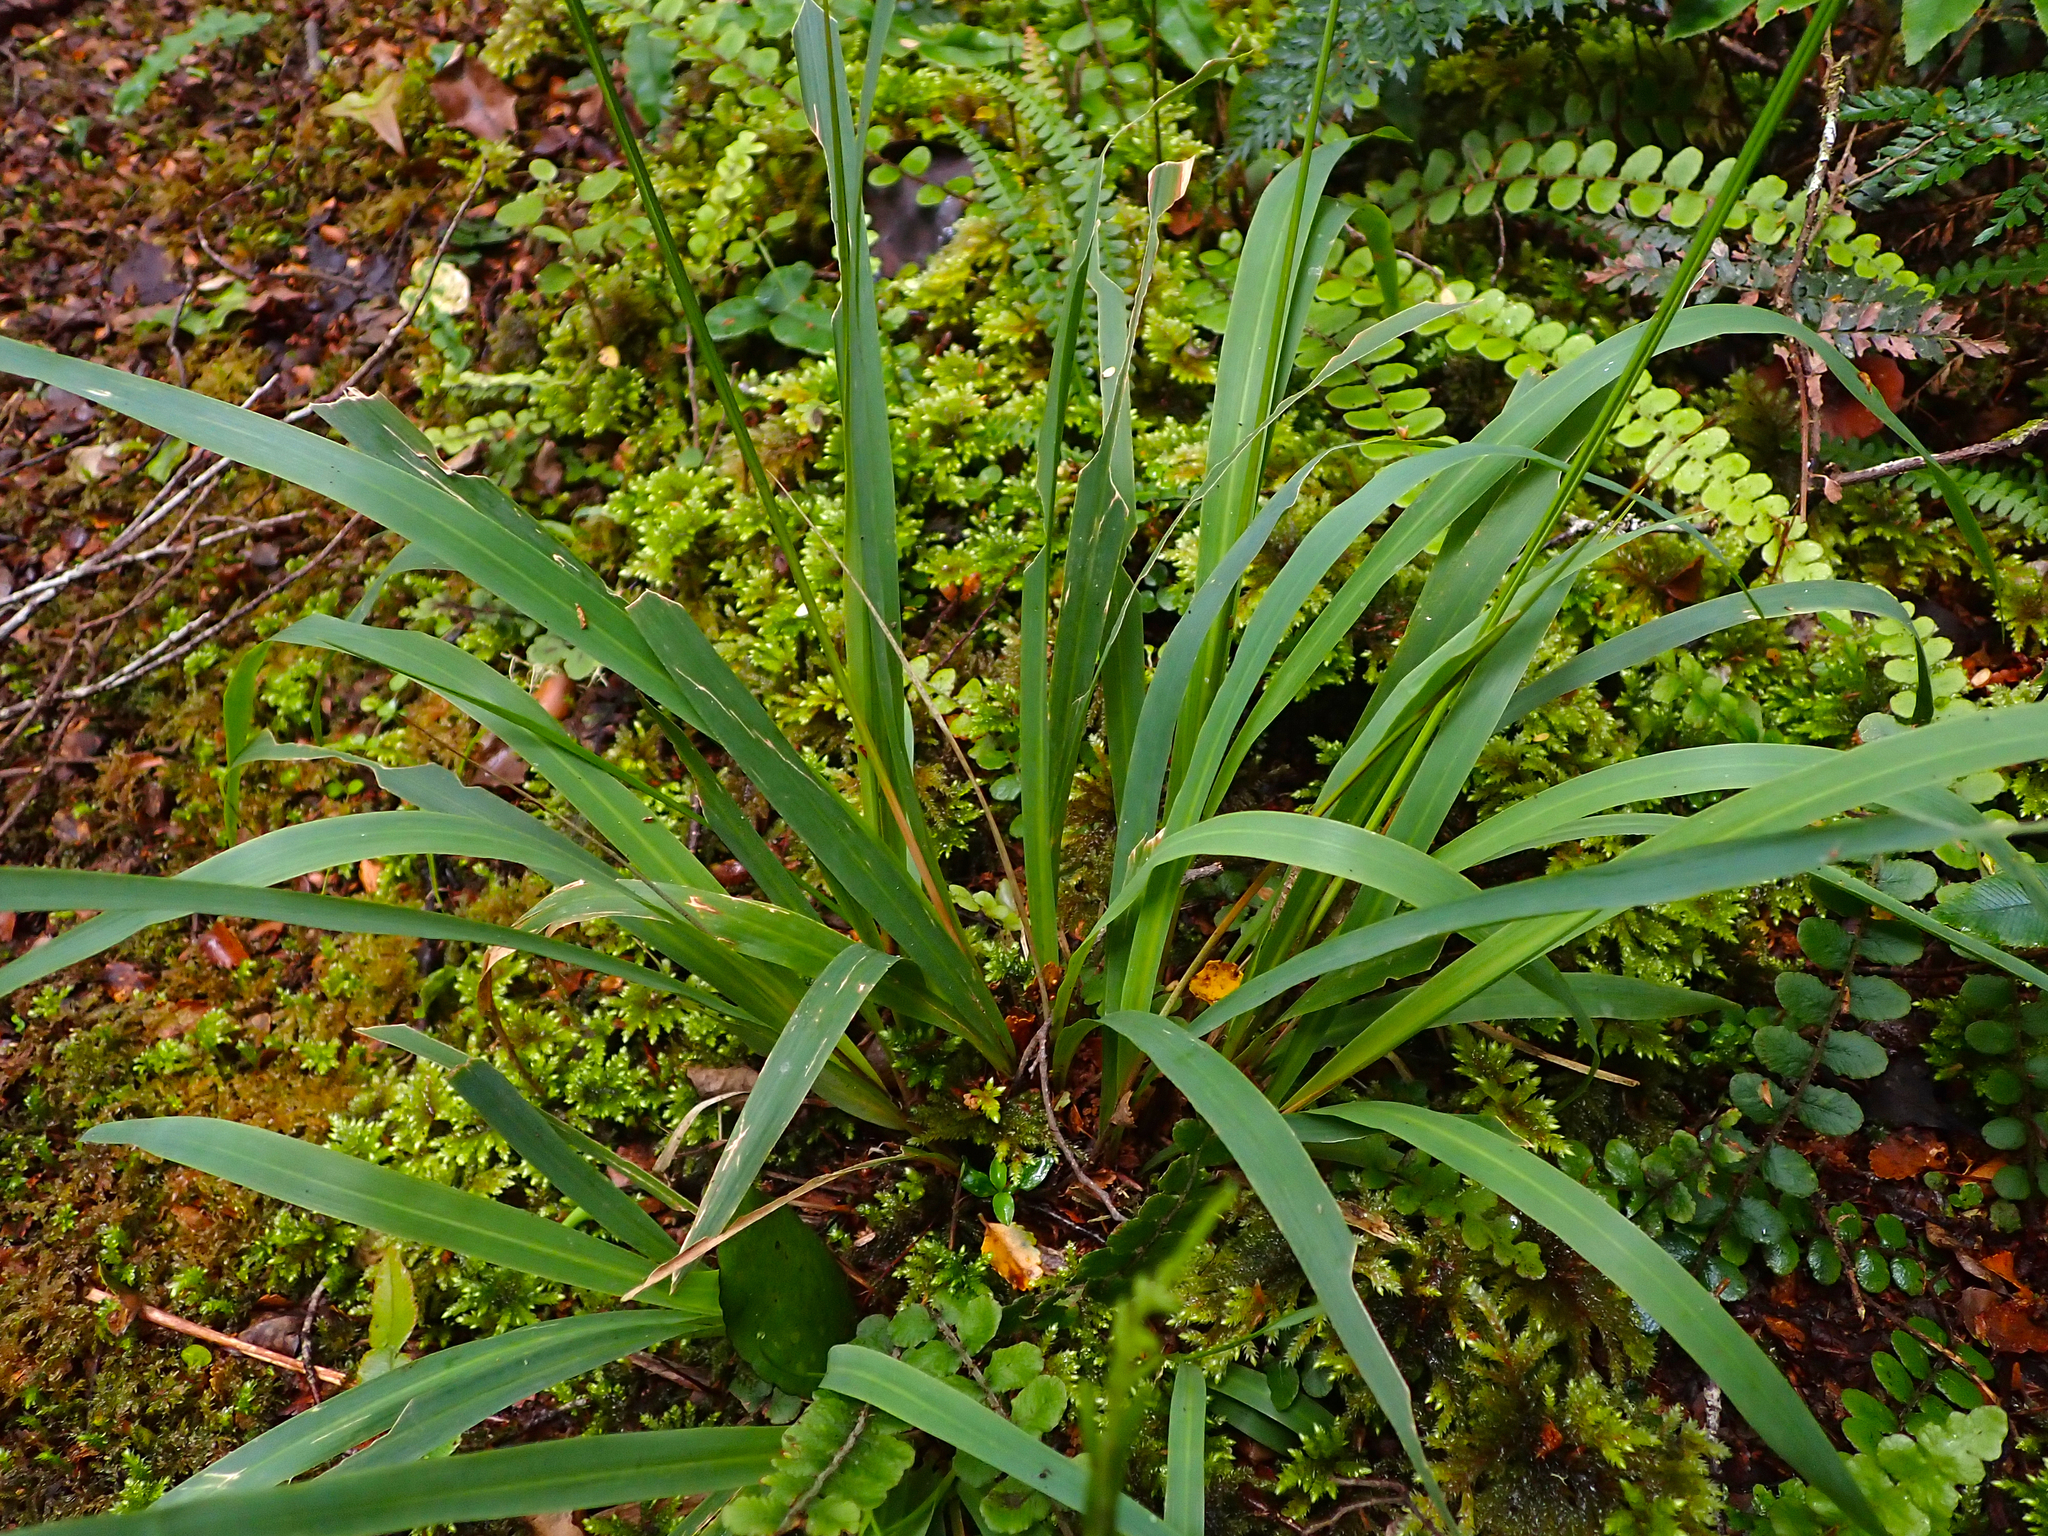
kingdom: Plantae
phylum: Tracheophyta
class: Liliopsida
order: Poales
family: Poaceae
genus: Ehrharta
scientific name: Ehrharta diplax
